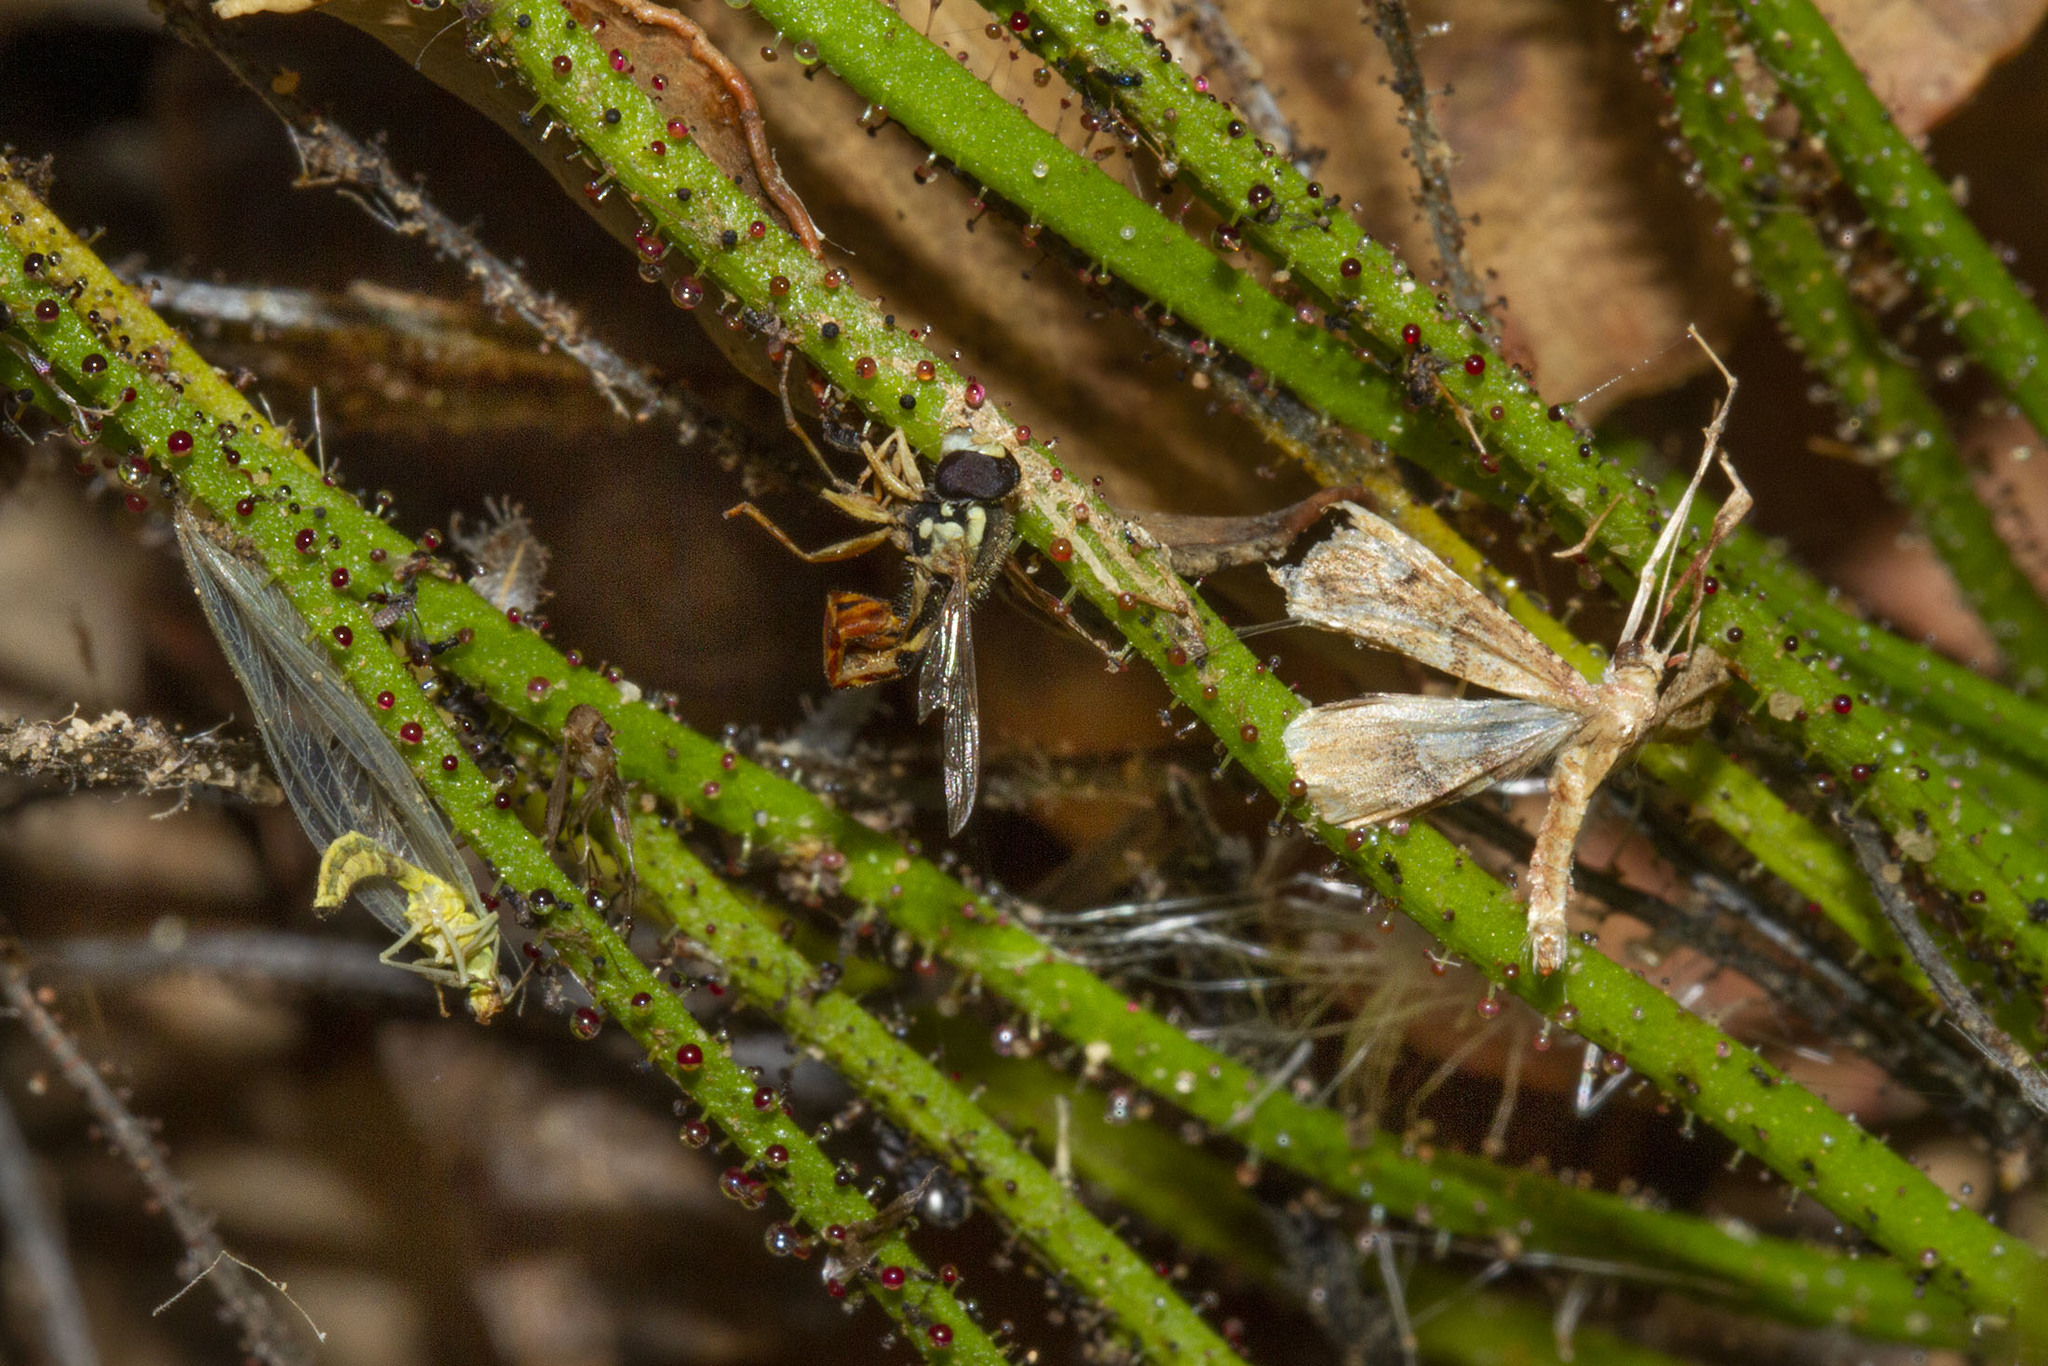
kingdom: Animalia
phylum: Arthropoda
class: Insecta
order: Diptera
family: Syrphidae
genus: Sphaerophoria
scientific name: Sphaerophoria
